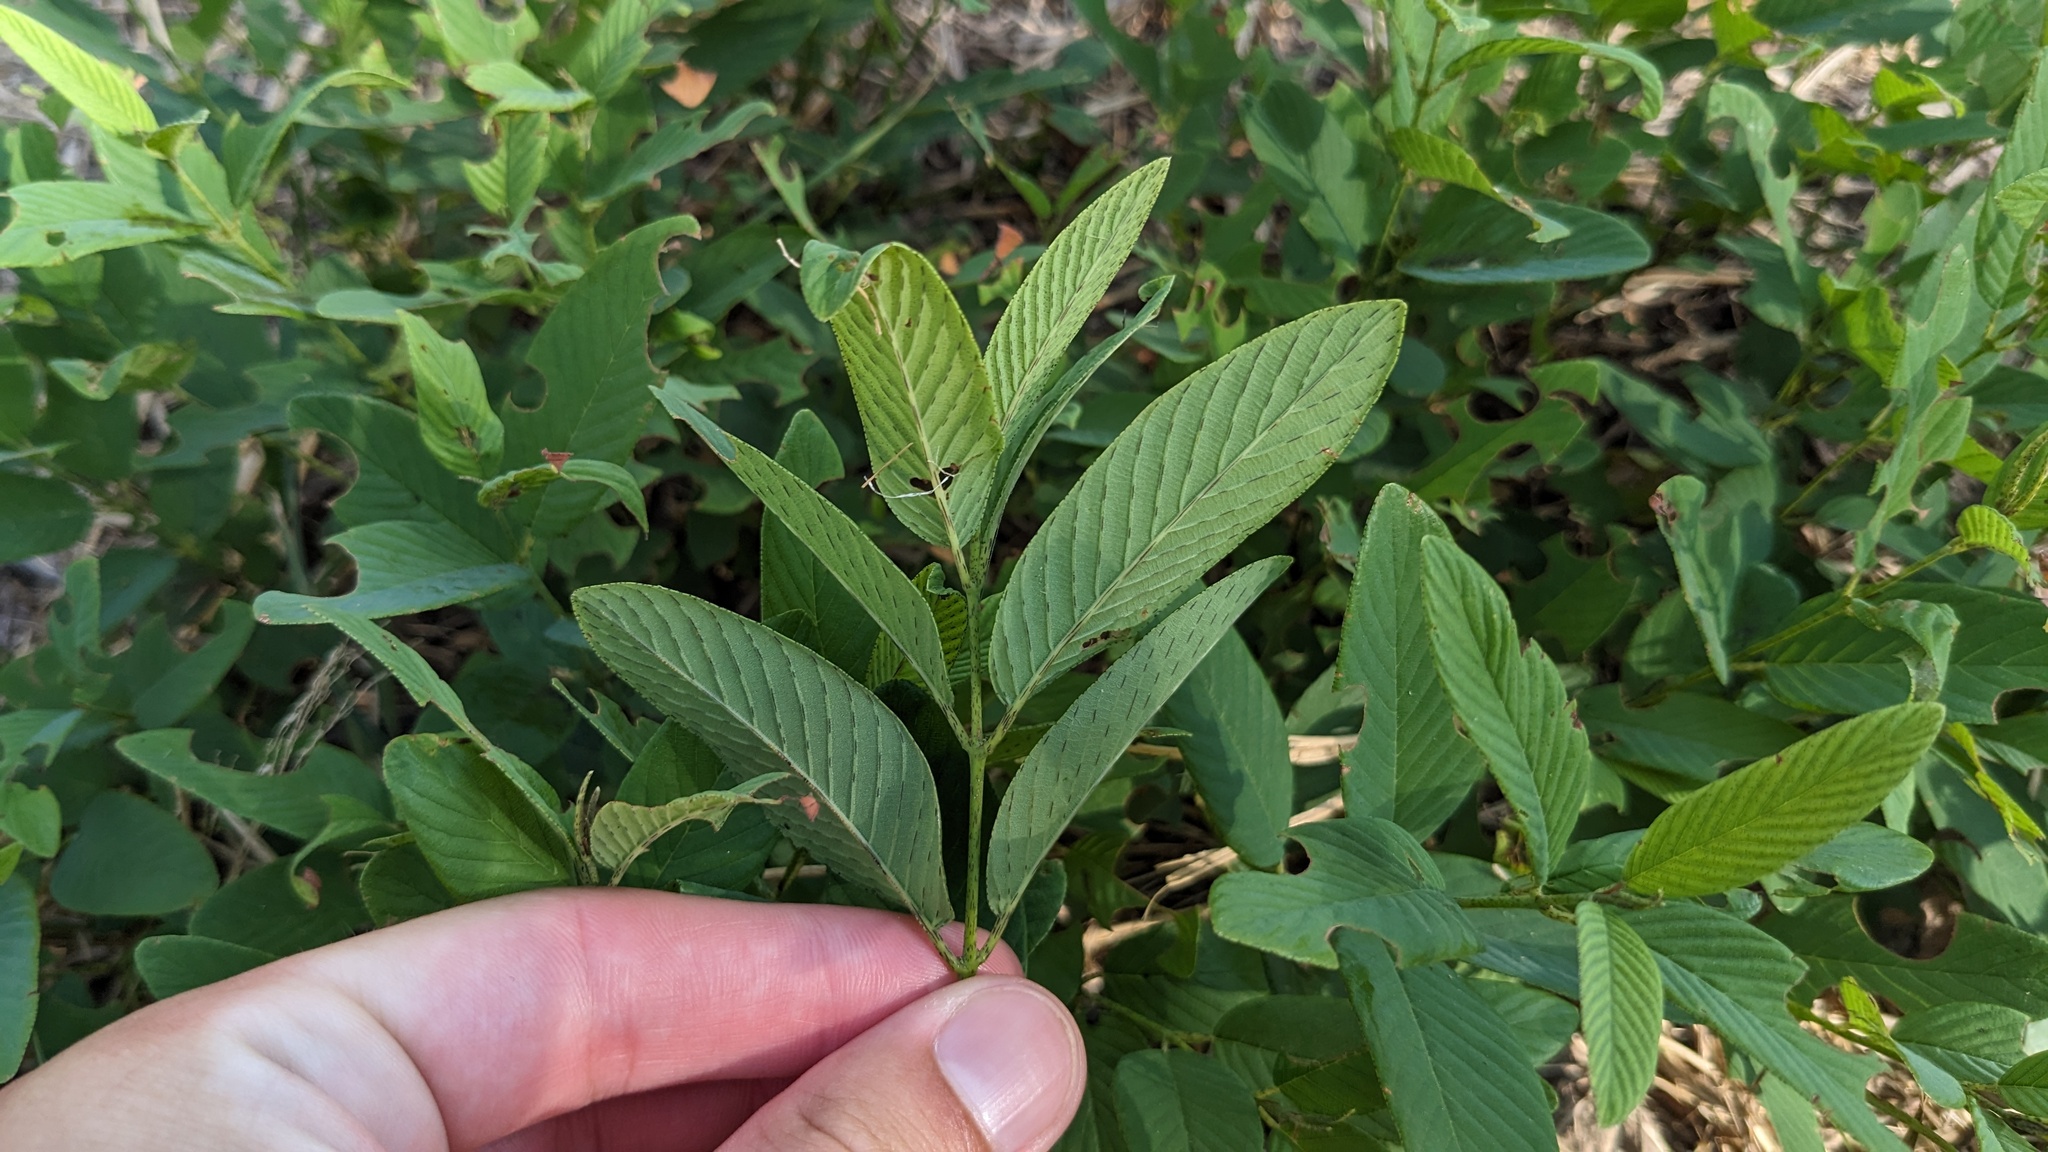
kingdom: Plantae
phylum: Tracheophyta
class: Magnoliopsida
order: Rosales
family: Rhamnaceae
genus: Karwinskia
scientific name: Karwinskia humboldtiana
